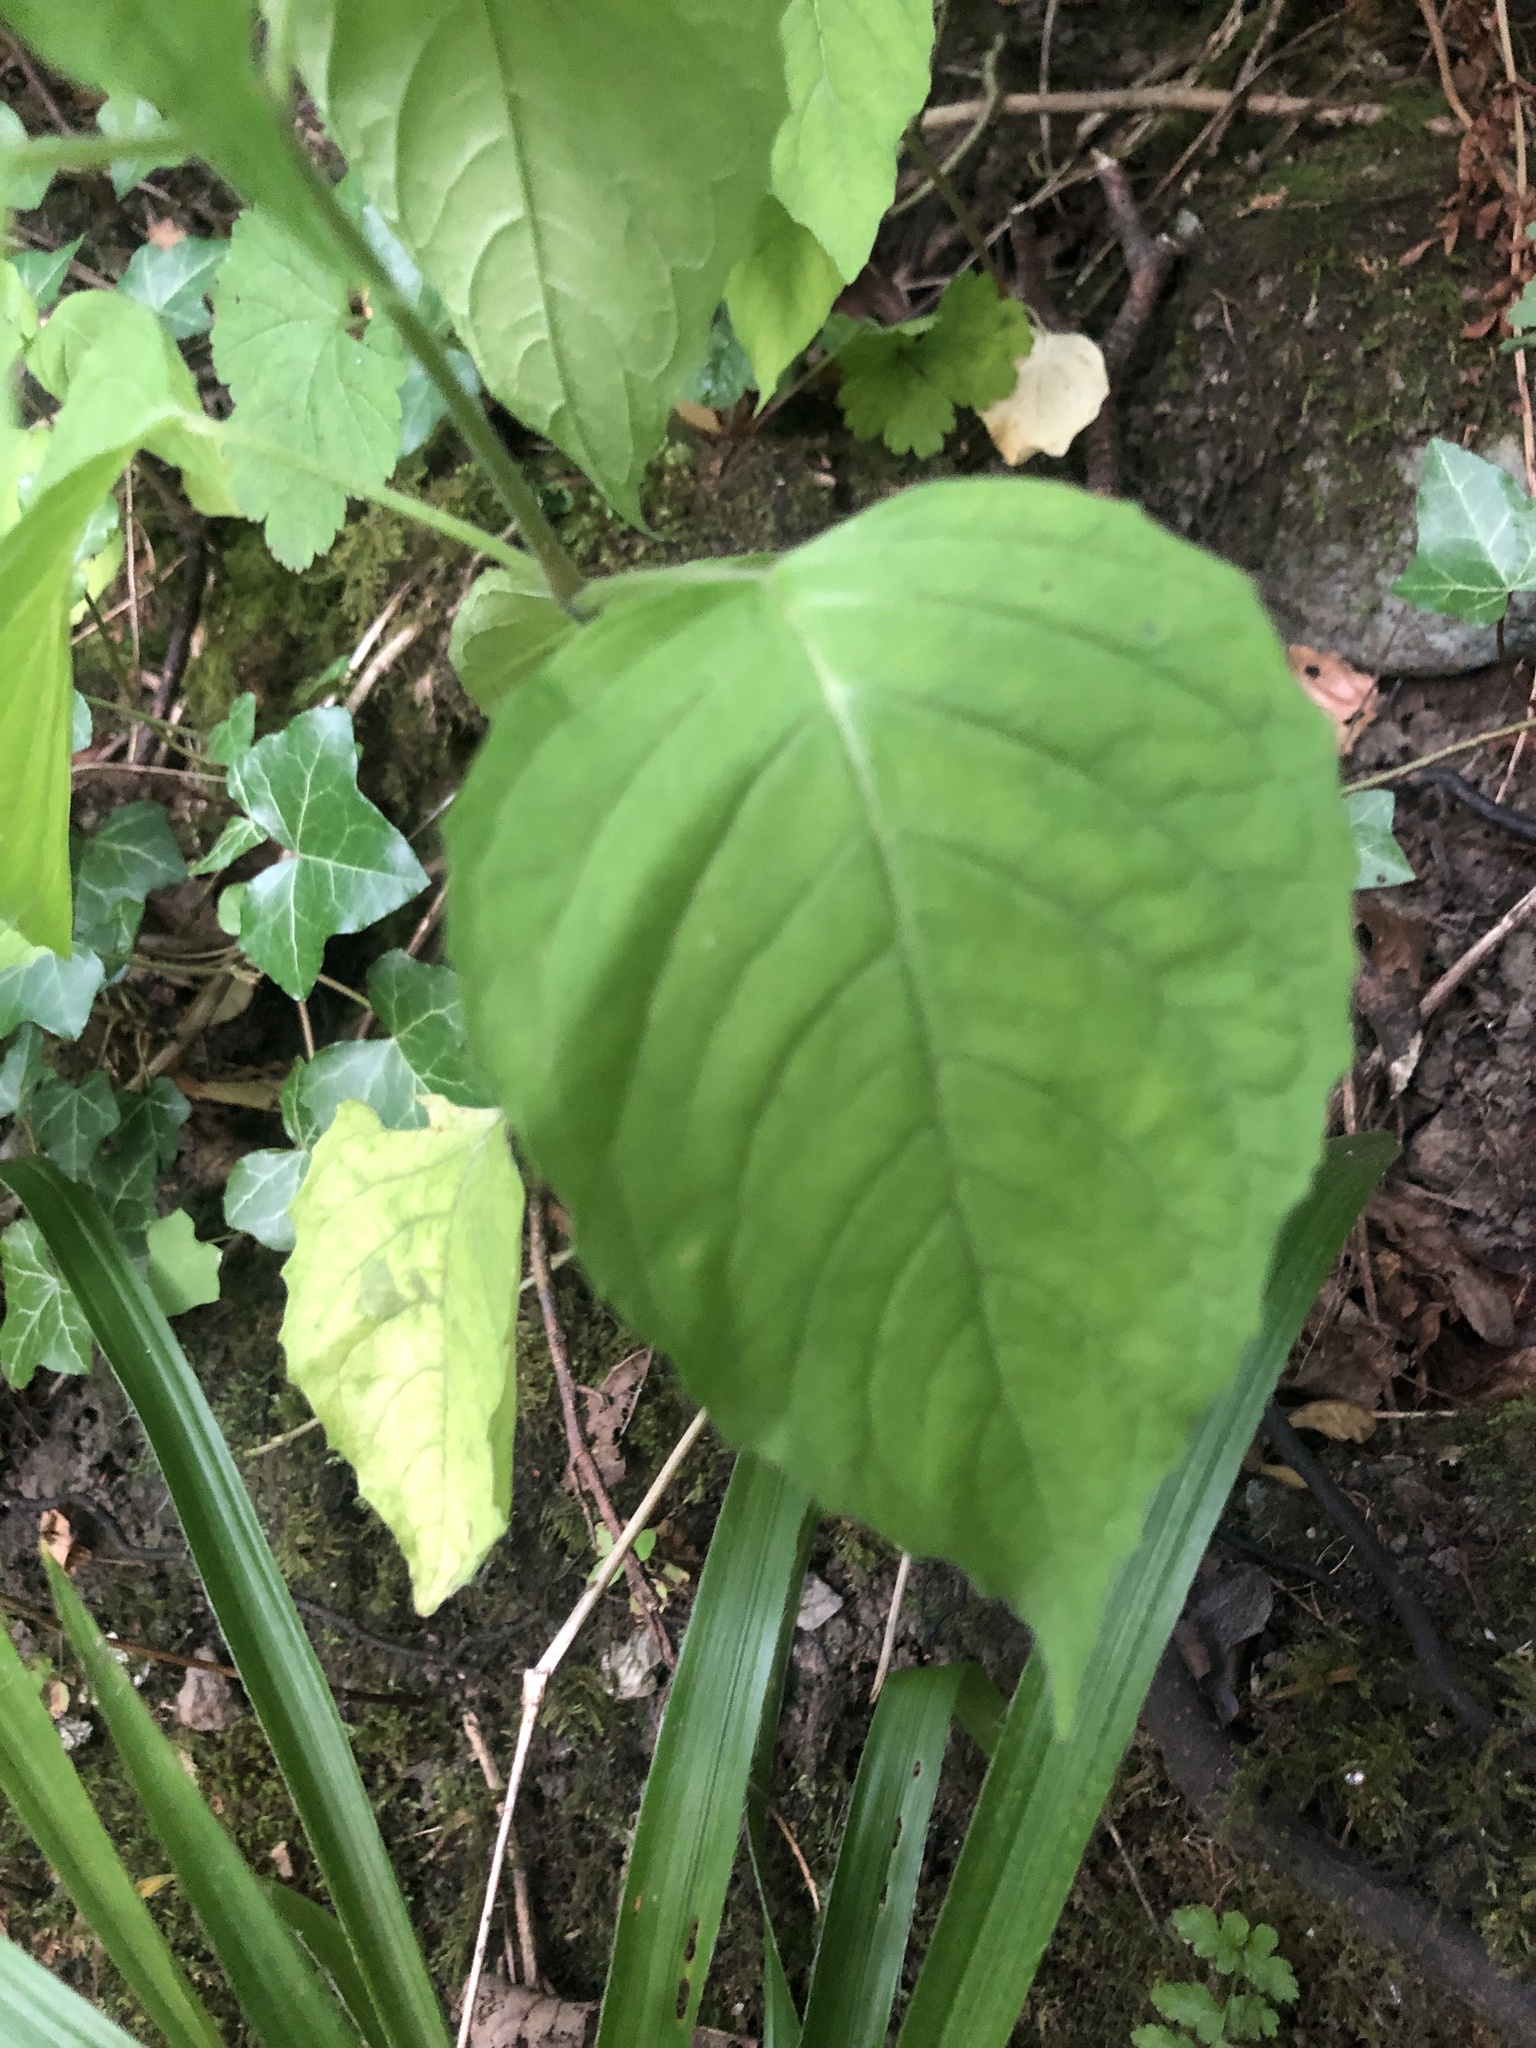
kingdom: Plantae
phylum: Tracheophyta
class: Magnoliopsida
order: Myrtales
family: Onagraceae
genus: Circaea
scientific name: Circaea lutetiana
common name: Enchanter's-nightshade
